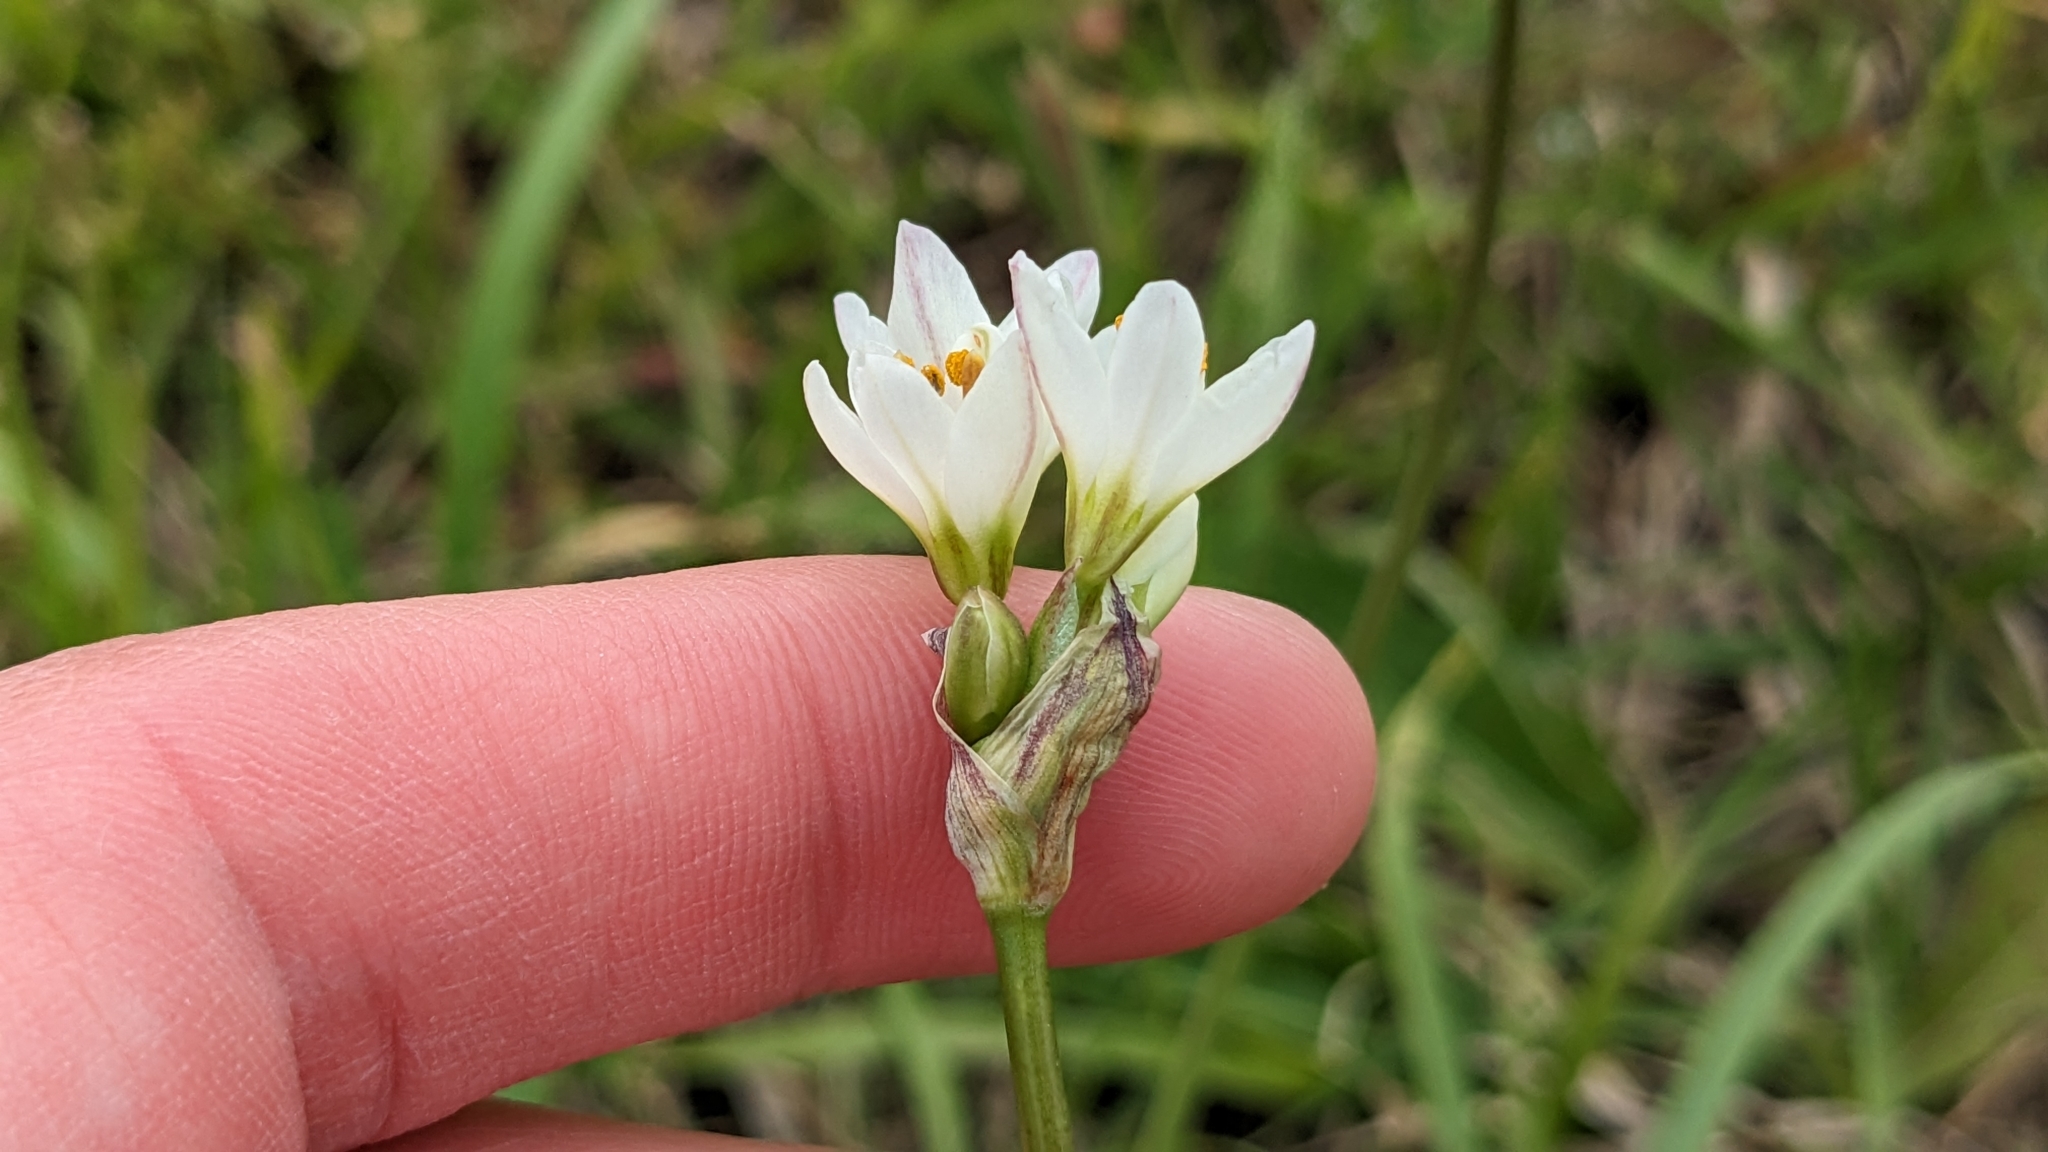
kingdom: Plantae
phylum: Tracheophyta
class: Liliopsida
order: Asparagales
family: Amaryllidaceae
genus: Nothoscordum
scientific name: Nothoscordum bivalve
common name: Crow-poison
